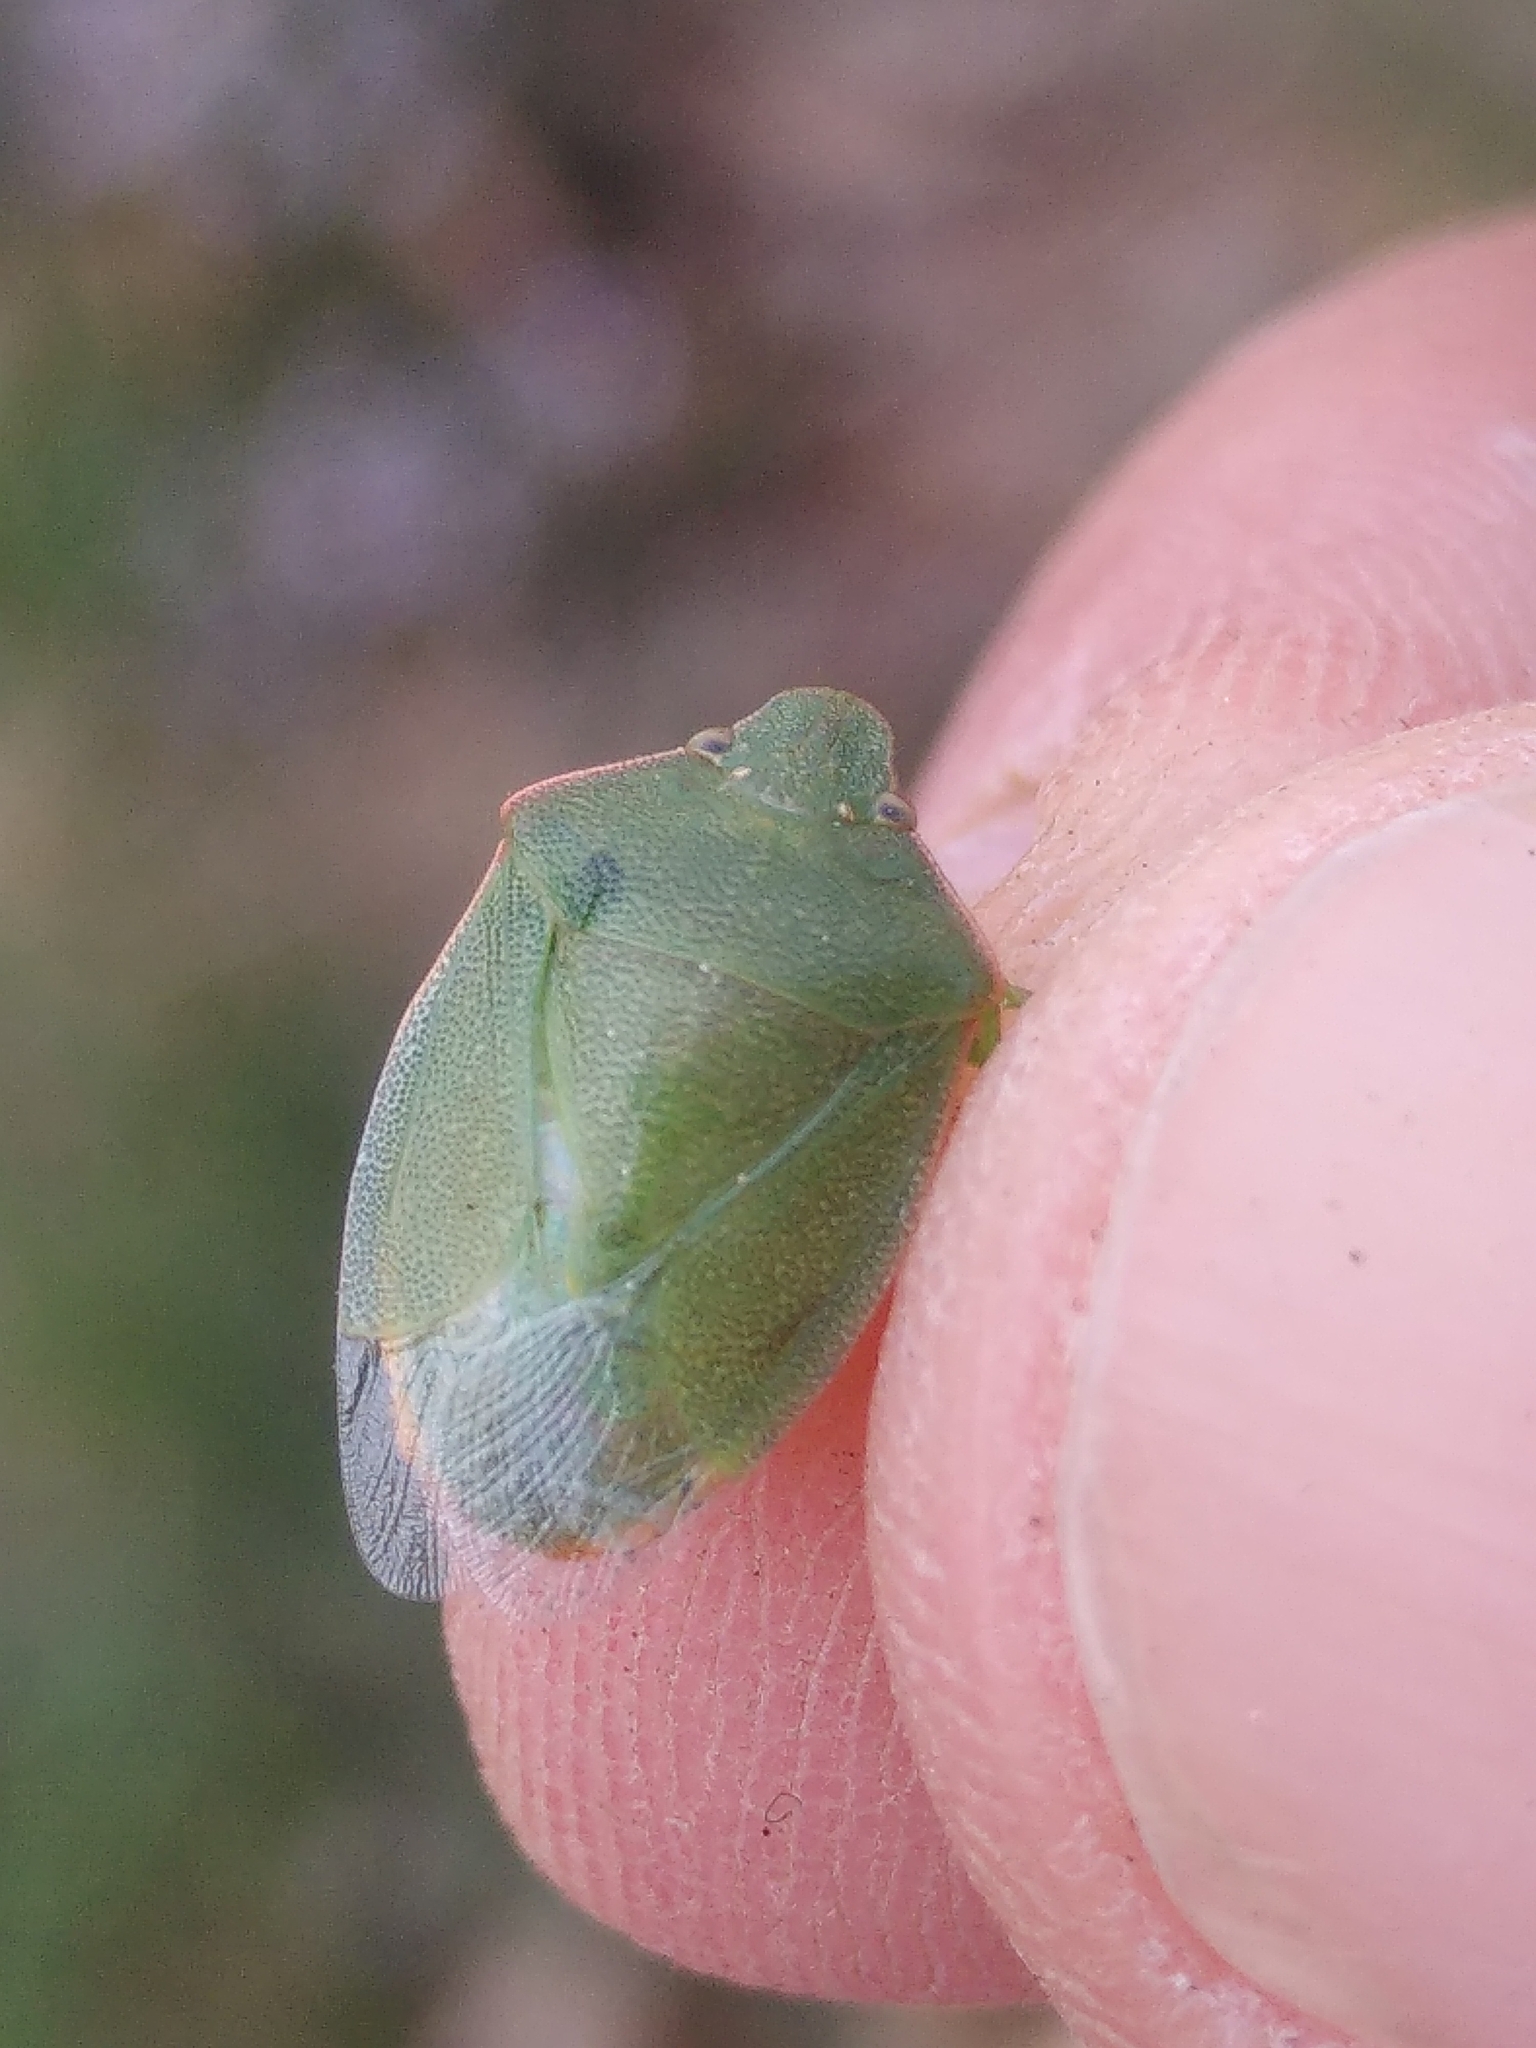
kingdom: Animalia
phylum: Arthropoda
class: Insecta
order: Hemiptera
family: Pentatomidae
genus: Acrosternum
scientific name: Acrosternum millierei
